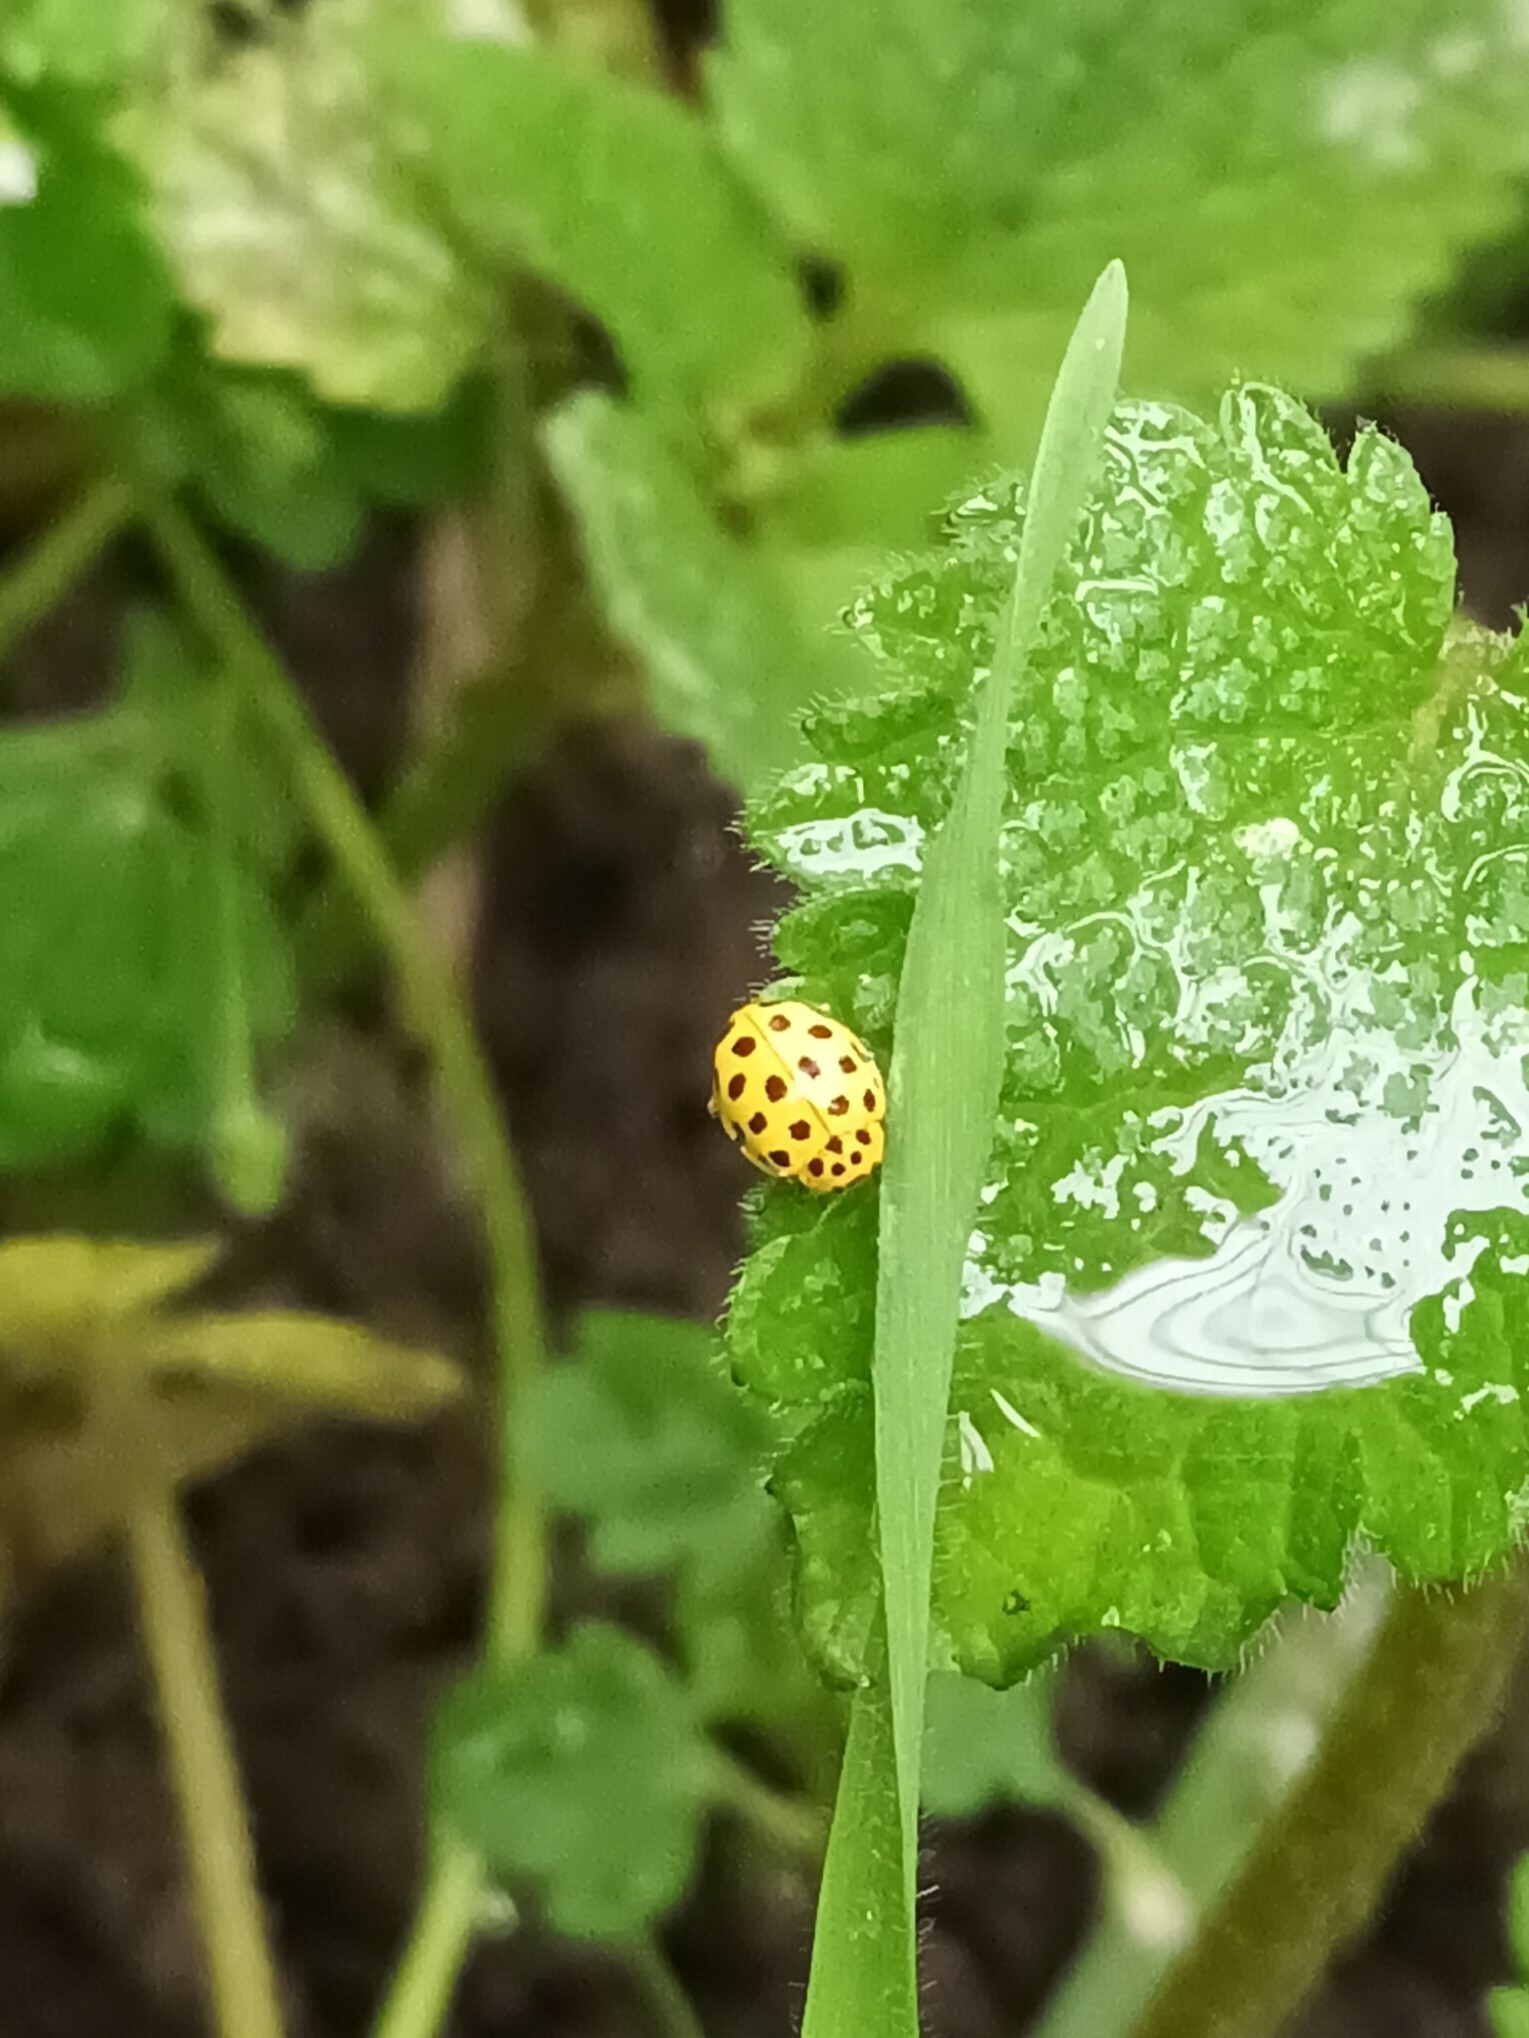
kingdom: Animalia
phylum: Arthropoda
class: Insecta
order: Coleoptera
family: Coccinellidae
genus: Psyllobora
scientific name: Psyllobora vigintiduopunctata
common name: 22-spot ladybird
